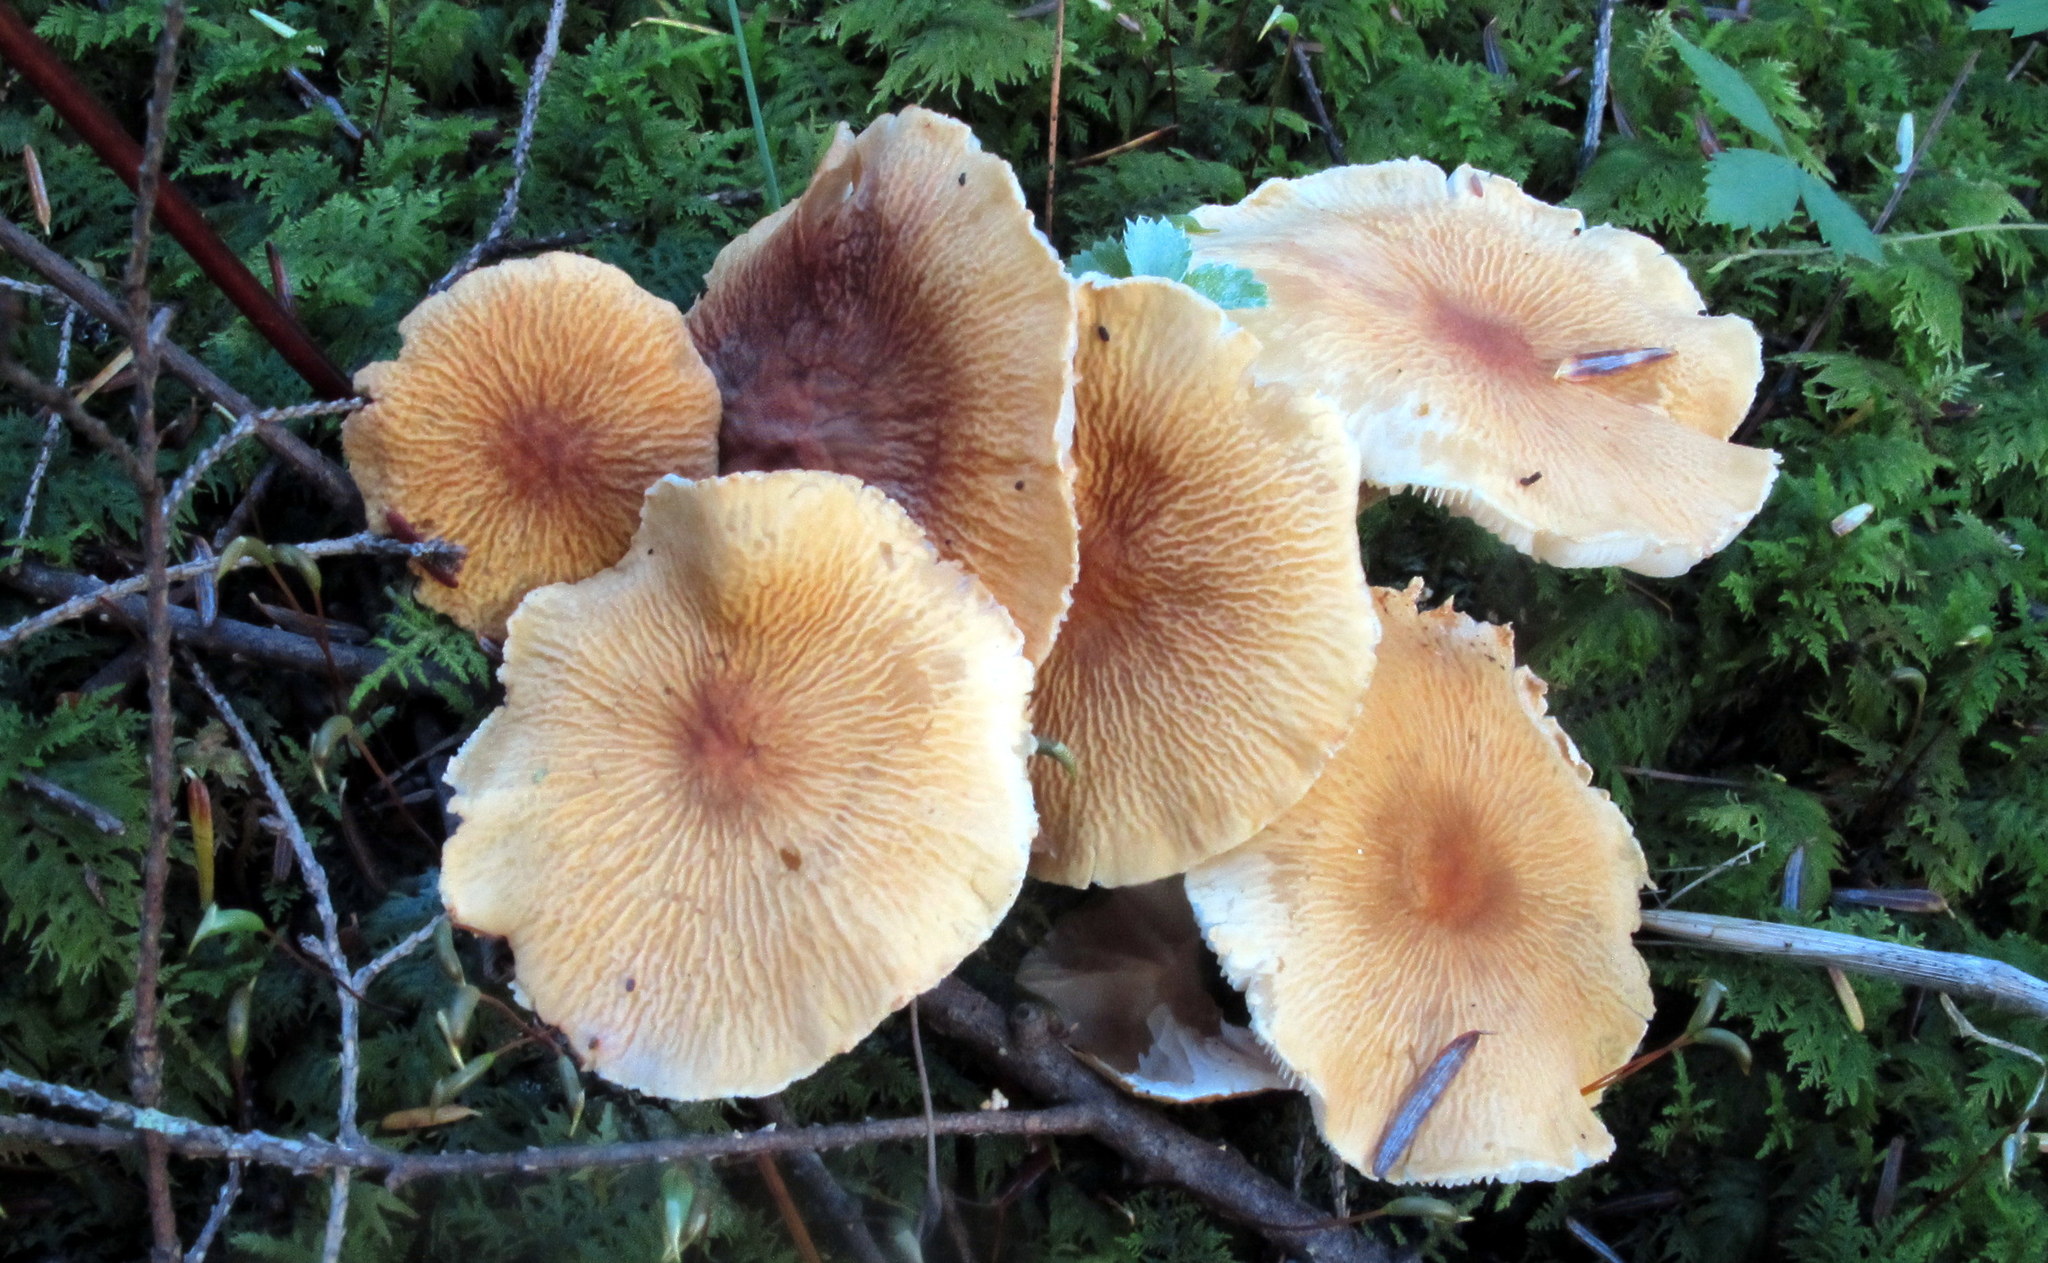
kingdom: Fungi
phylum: Basidiomycota
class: Agaricomycetes
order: Agaricales
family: Tricholomataceae
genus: Cystoderma
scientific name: Cystoderma amianthinum
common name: Earthy powdercap
